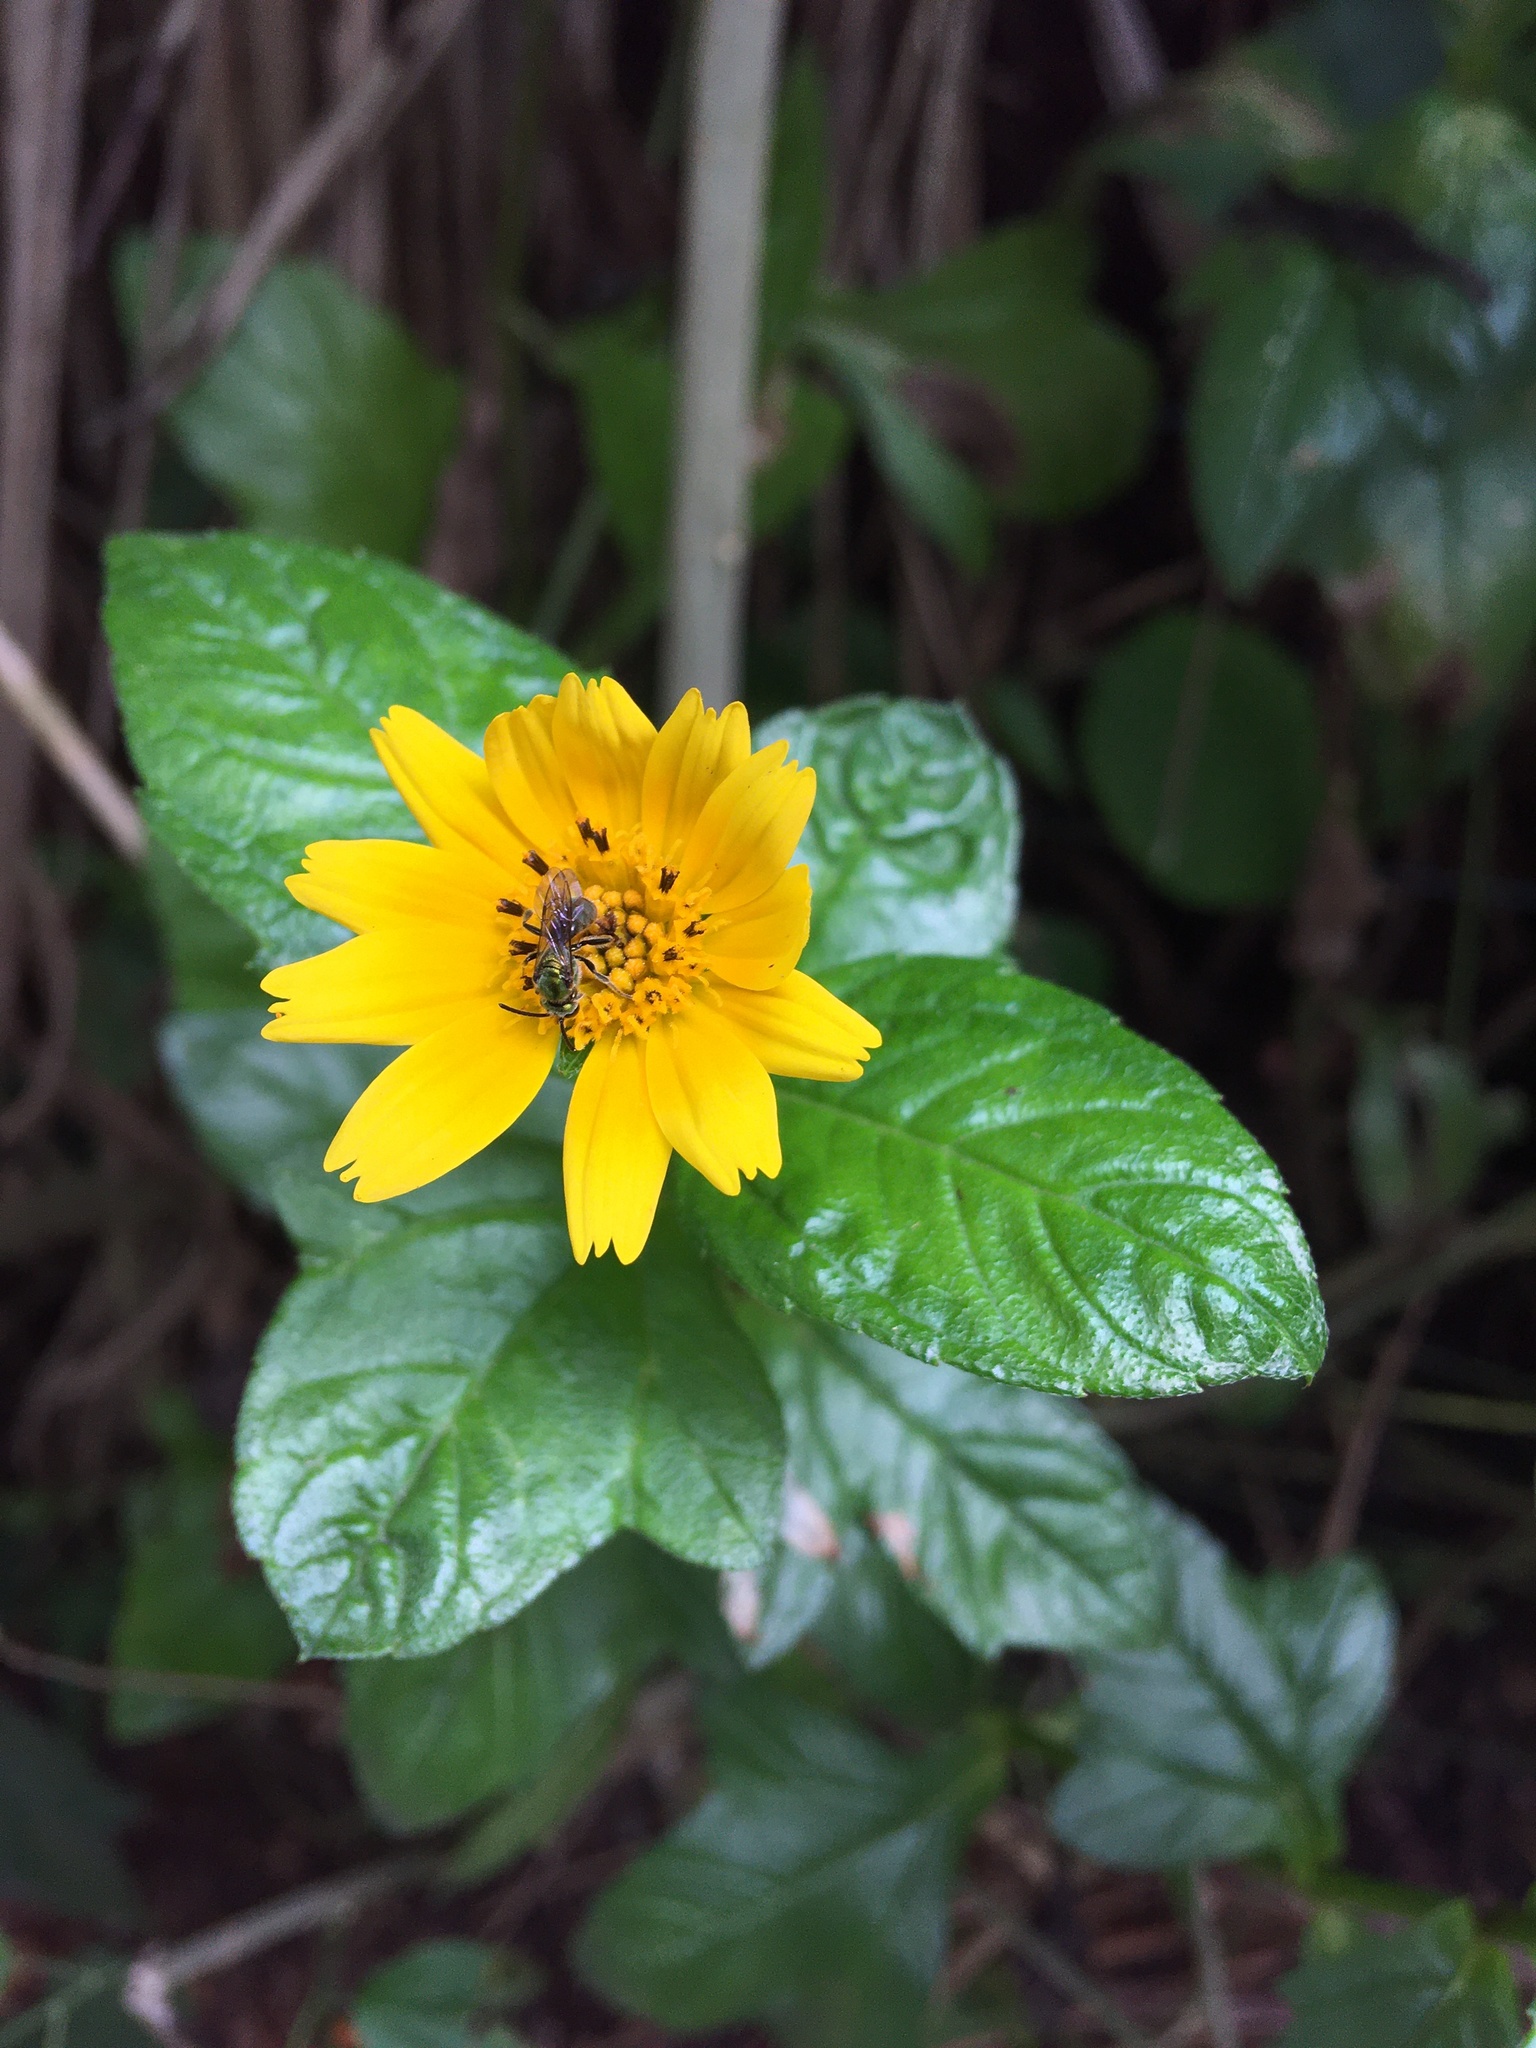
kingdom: Plantae
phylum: Tracheophyta
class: Magnoliopsida
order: Asterales
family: Asteraceae
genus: Sphagneticola
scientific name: Sphagneticola trilobata
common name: Bay biscayne creeping-oxeye
